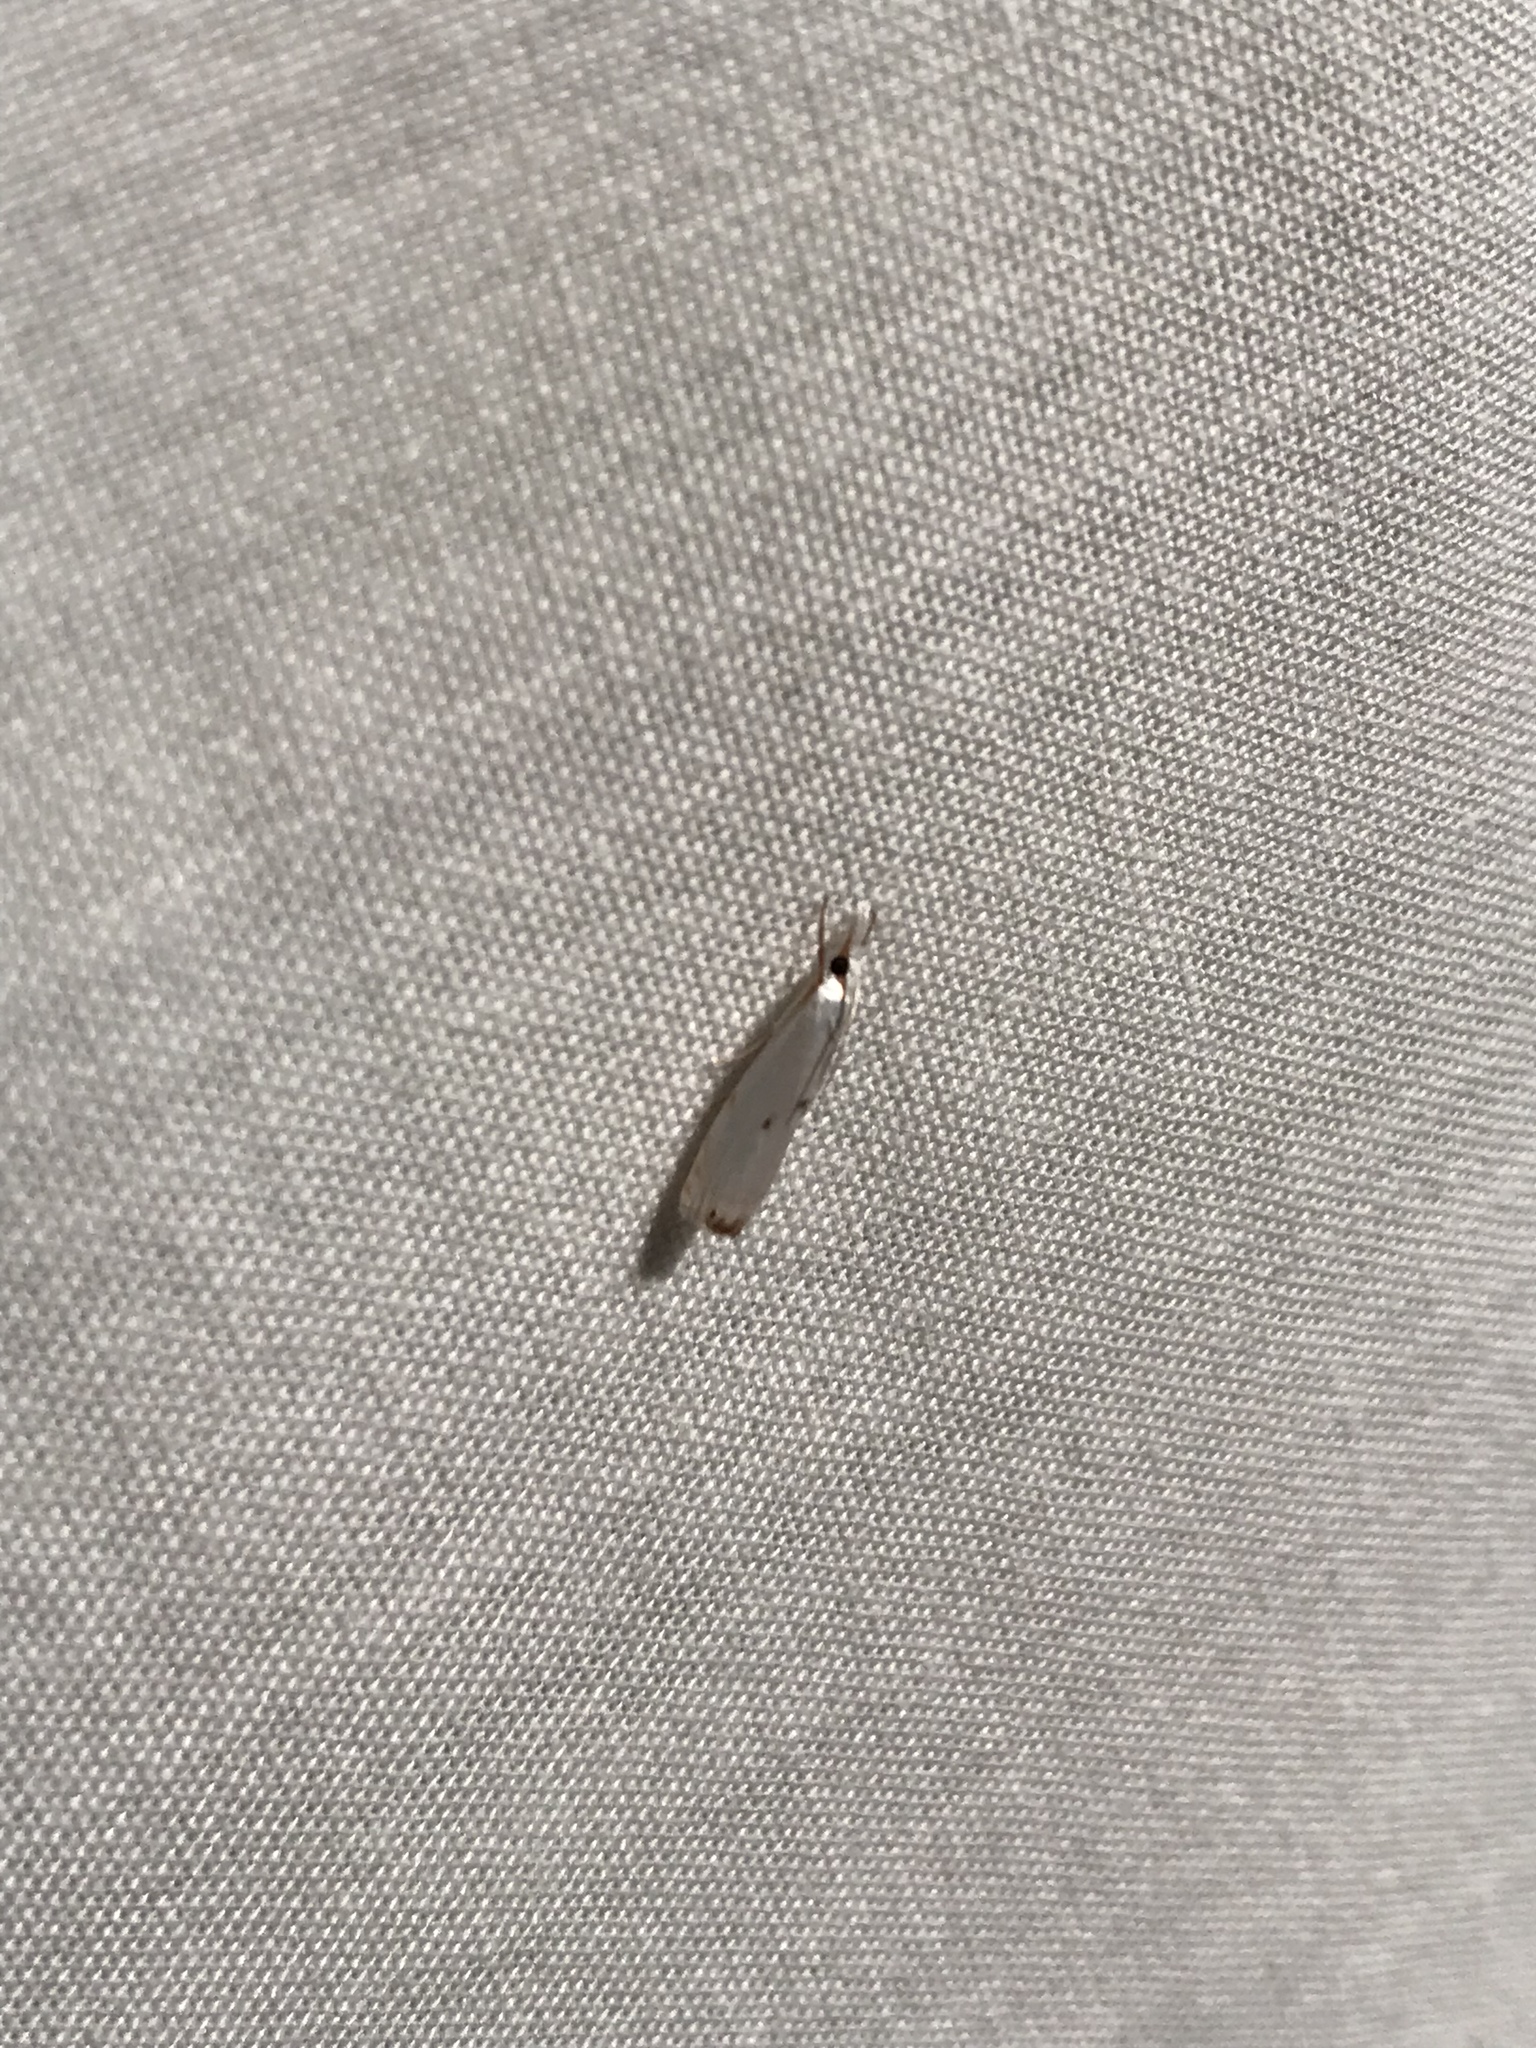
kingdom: Animalia
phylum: Arthropoda
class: Insecta
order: Lepidoptera
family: Crambidae
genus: Microcrambus
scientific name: Microcrambus biguttellus
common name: Gold-stripe grass-veneer moth
